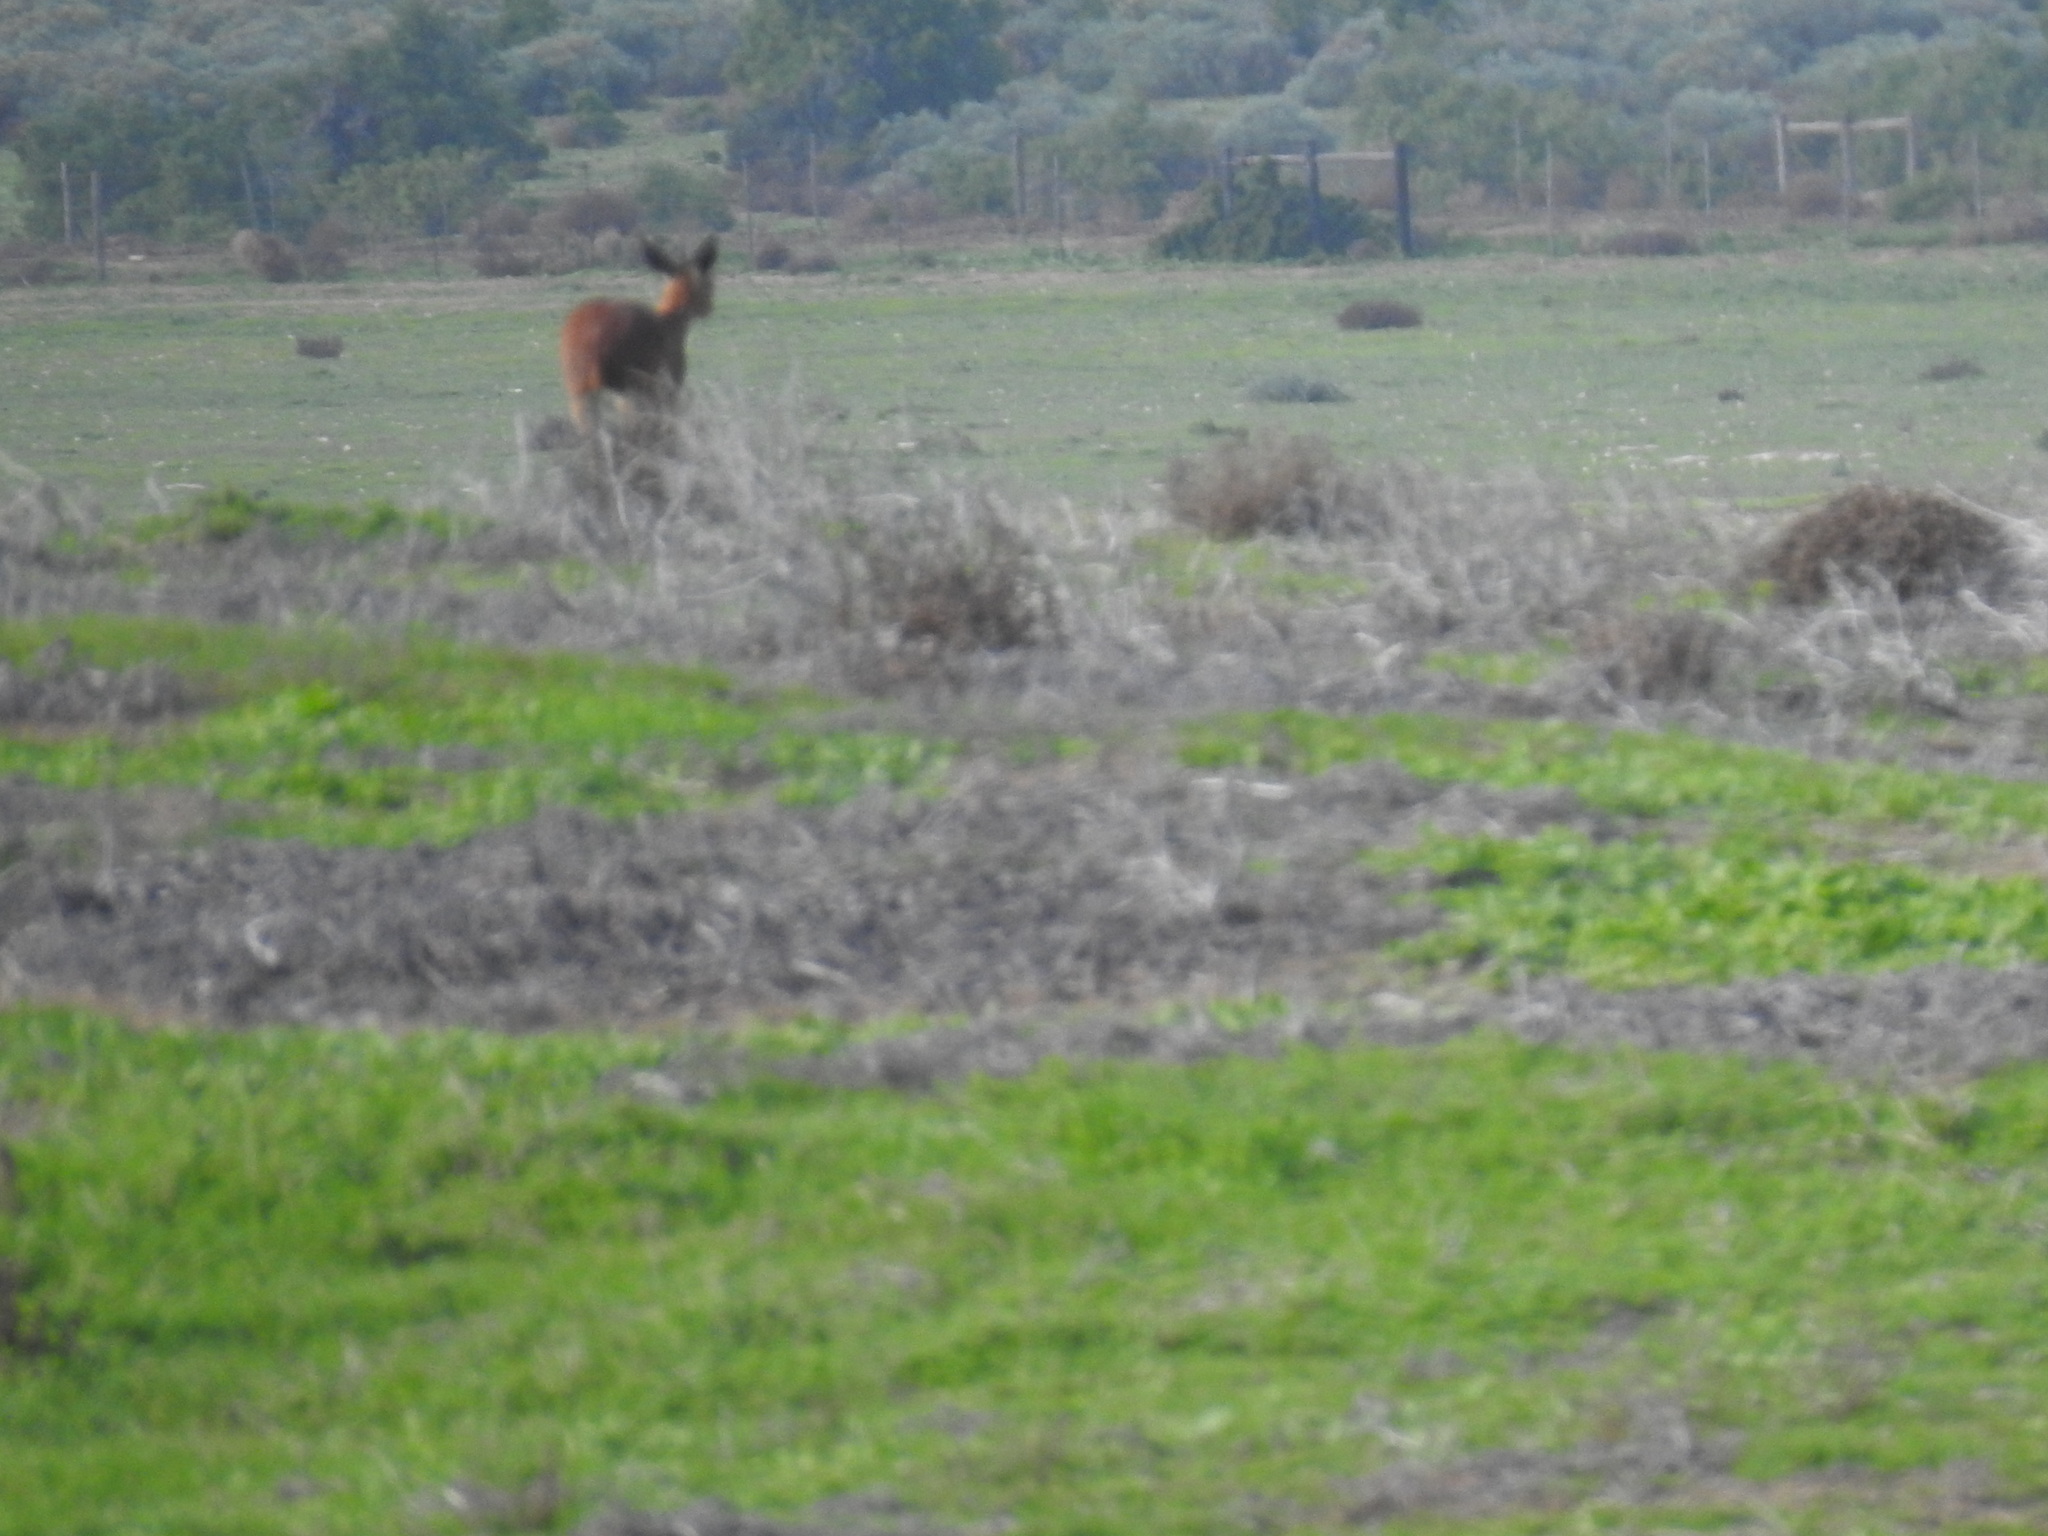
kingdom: Animalia
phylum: Chordata
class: Mammalia
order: Artiodactyla
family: Bovidae
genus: Raphicerus
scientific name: Raphicerus campestris
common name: Steenbok
